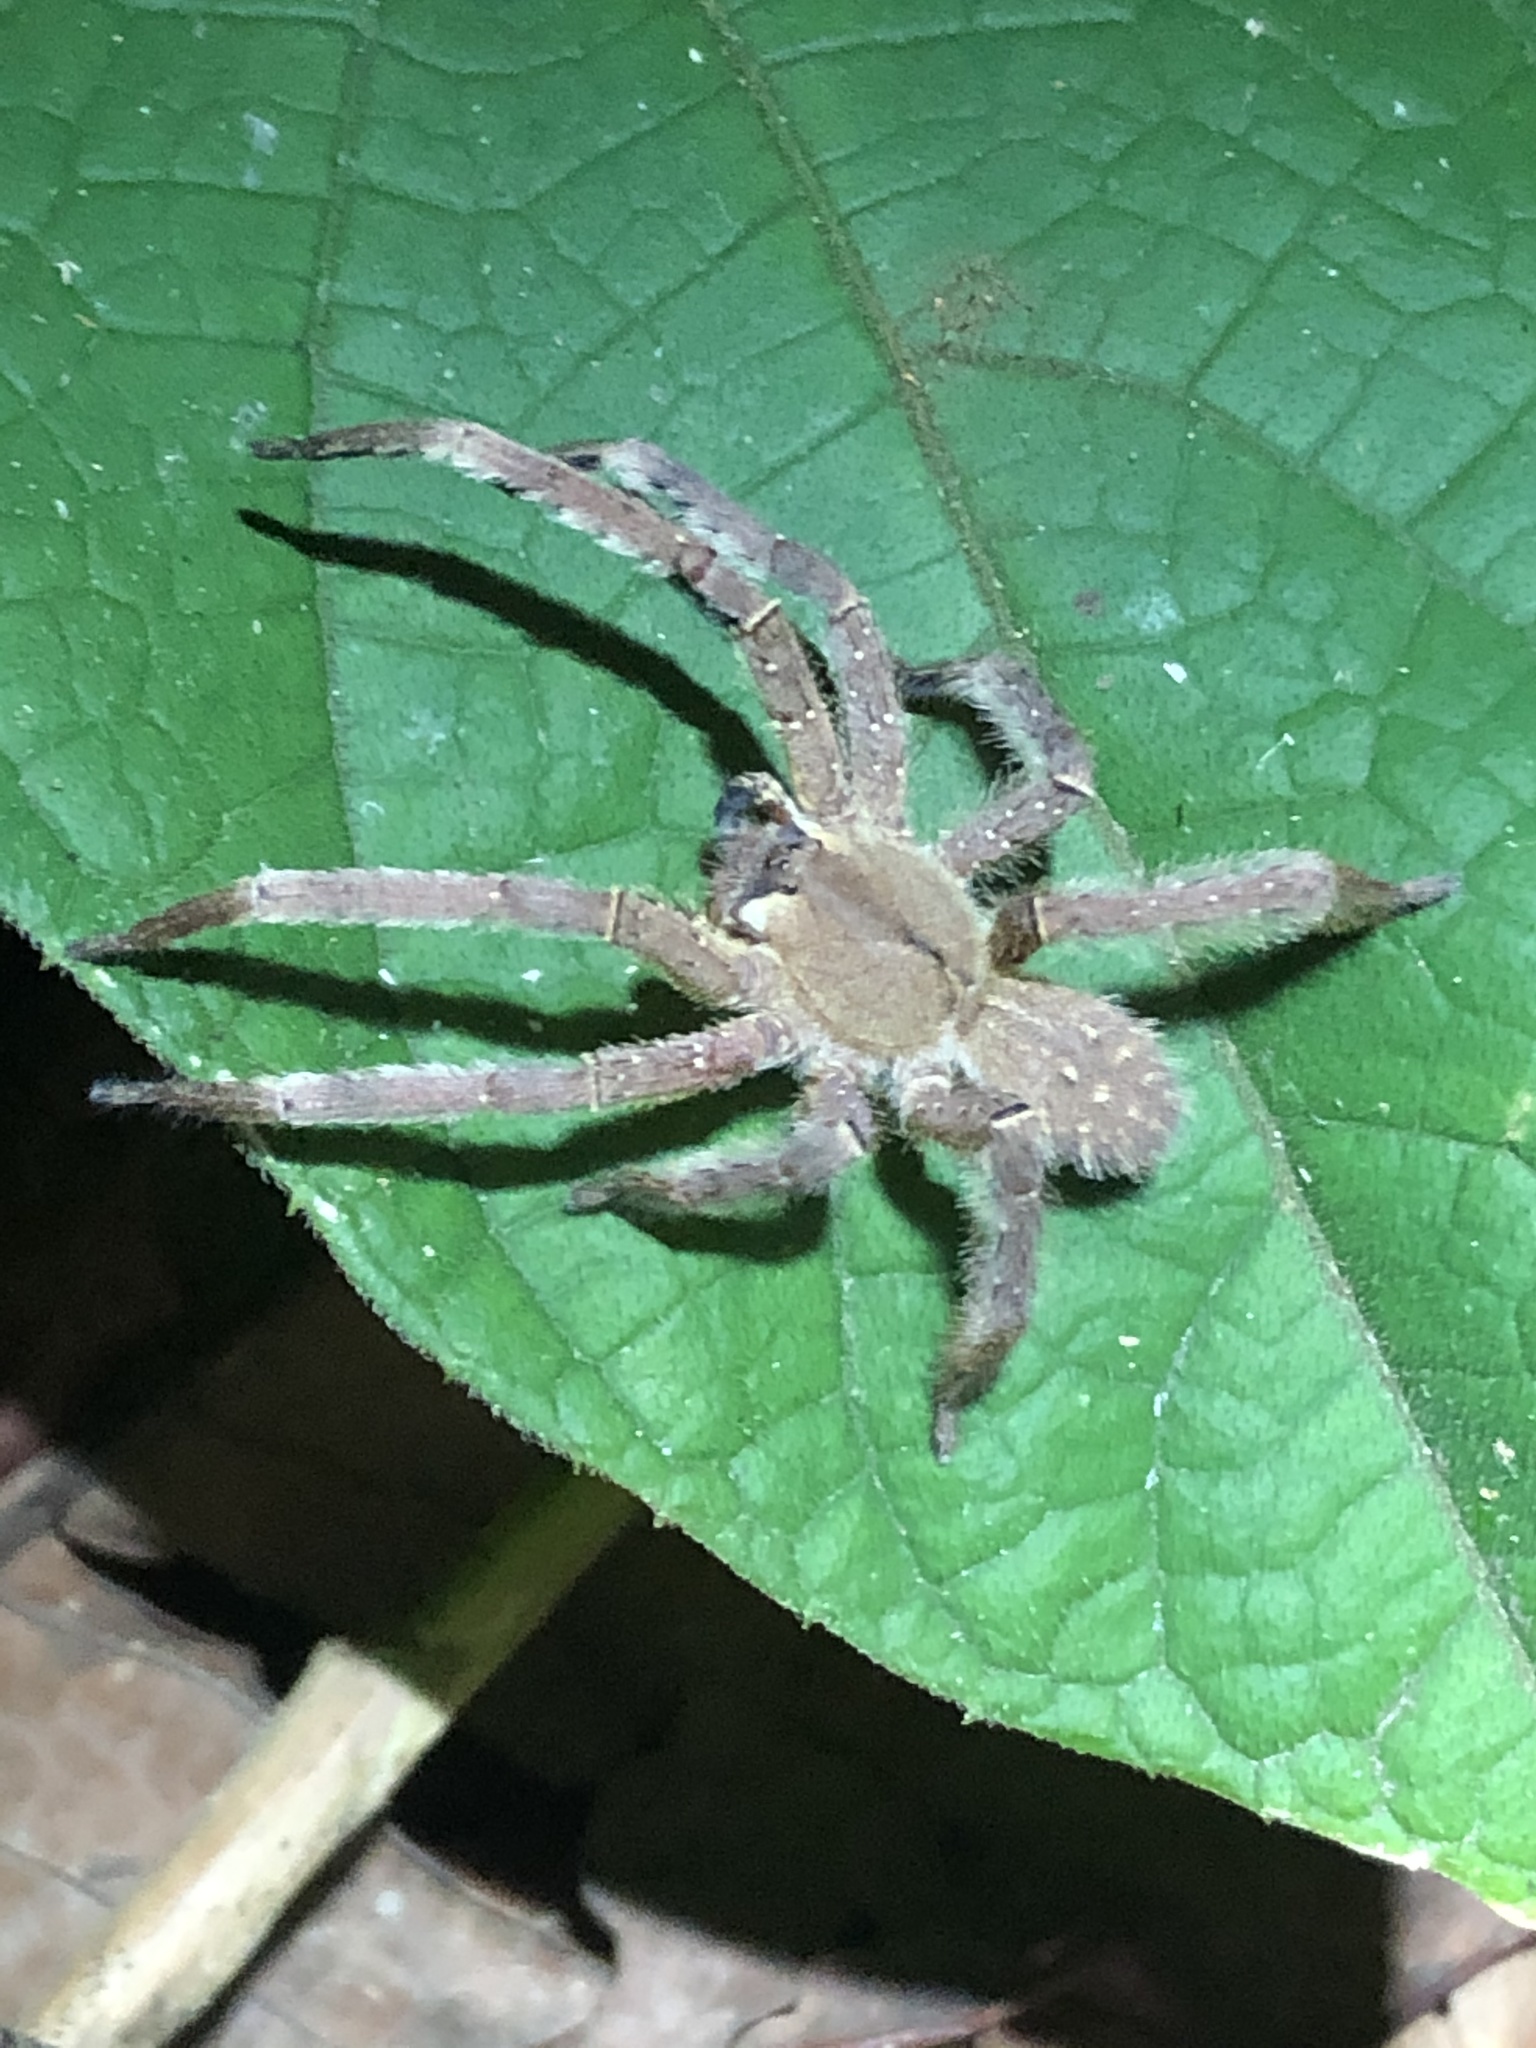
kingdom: Animalia
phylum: Arthropoda
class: Arachnida
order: Araneae
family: Ctenidae
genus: Phoneutria
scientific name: Phoneutria boliviensis
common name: Wandering spiders
